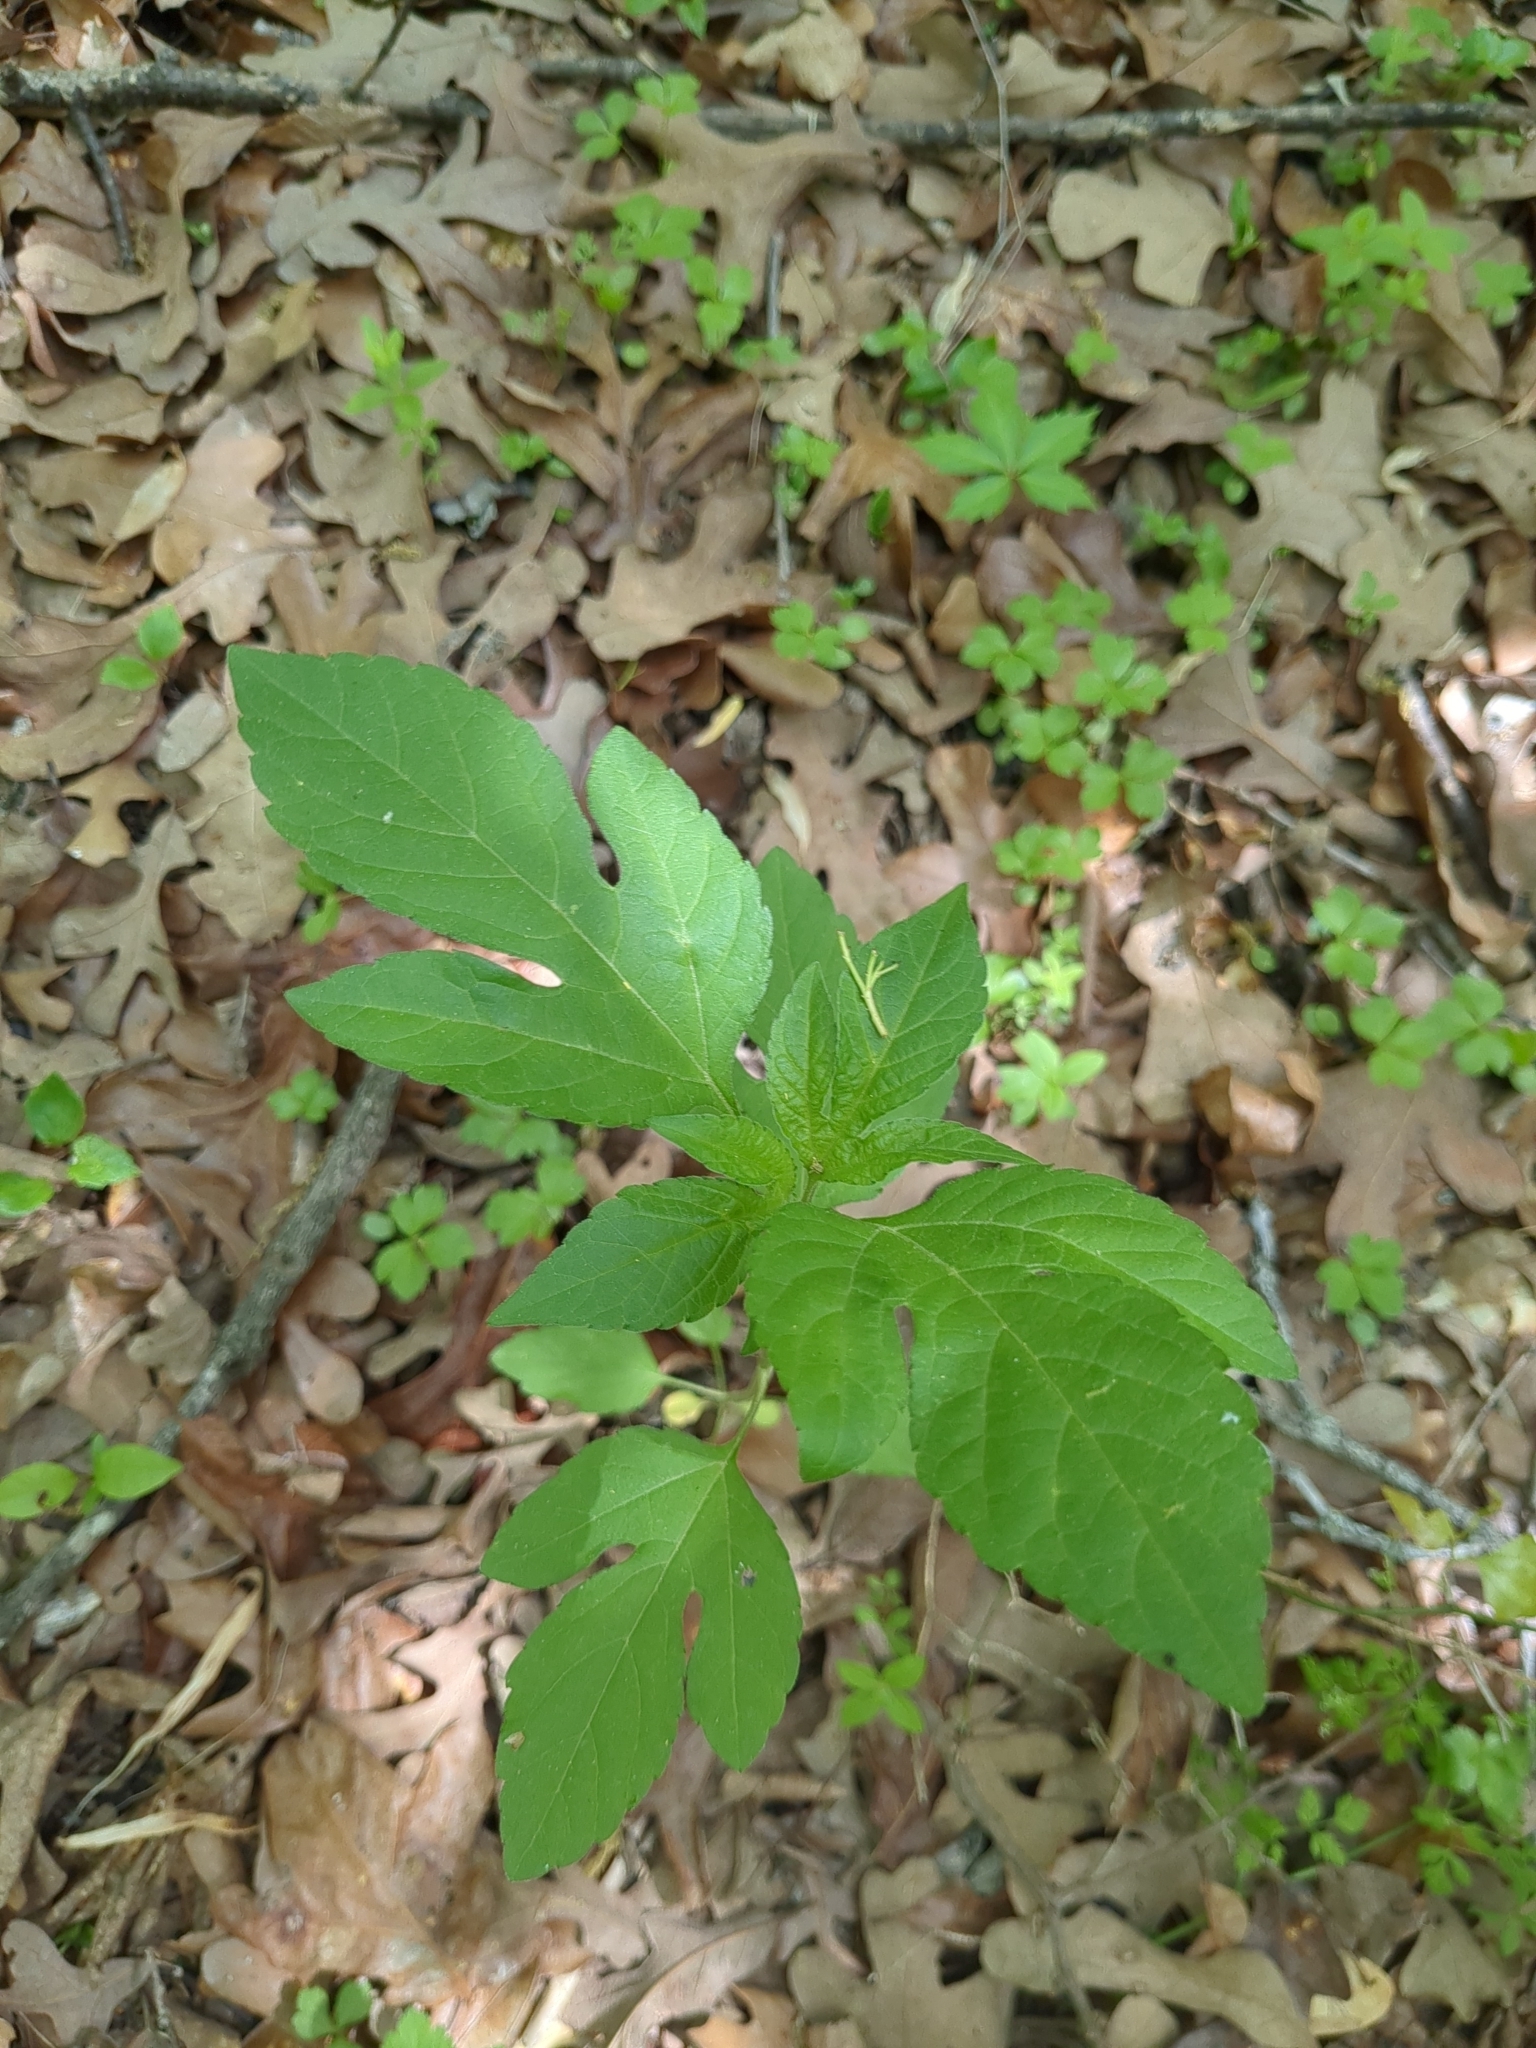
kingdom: Plantae
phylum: Tracheophyta
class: Magnoliopsida
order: Asterales
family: Asteraceae
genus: Ambrosia
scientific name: Ambrosia trifida
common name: Giant ragweed
